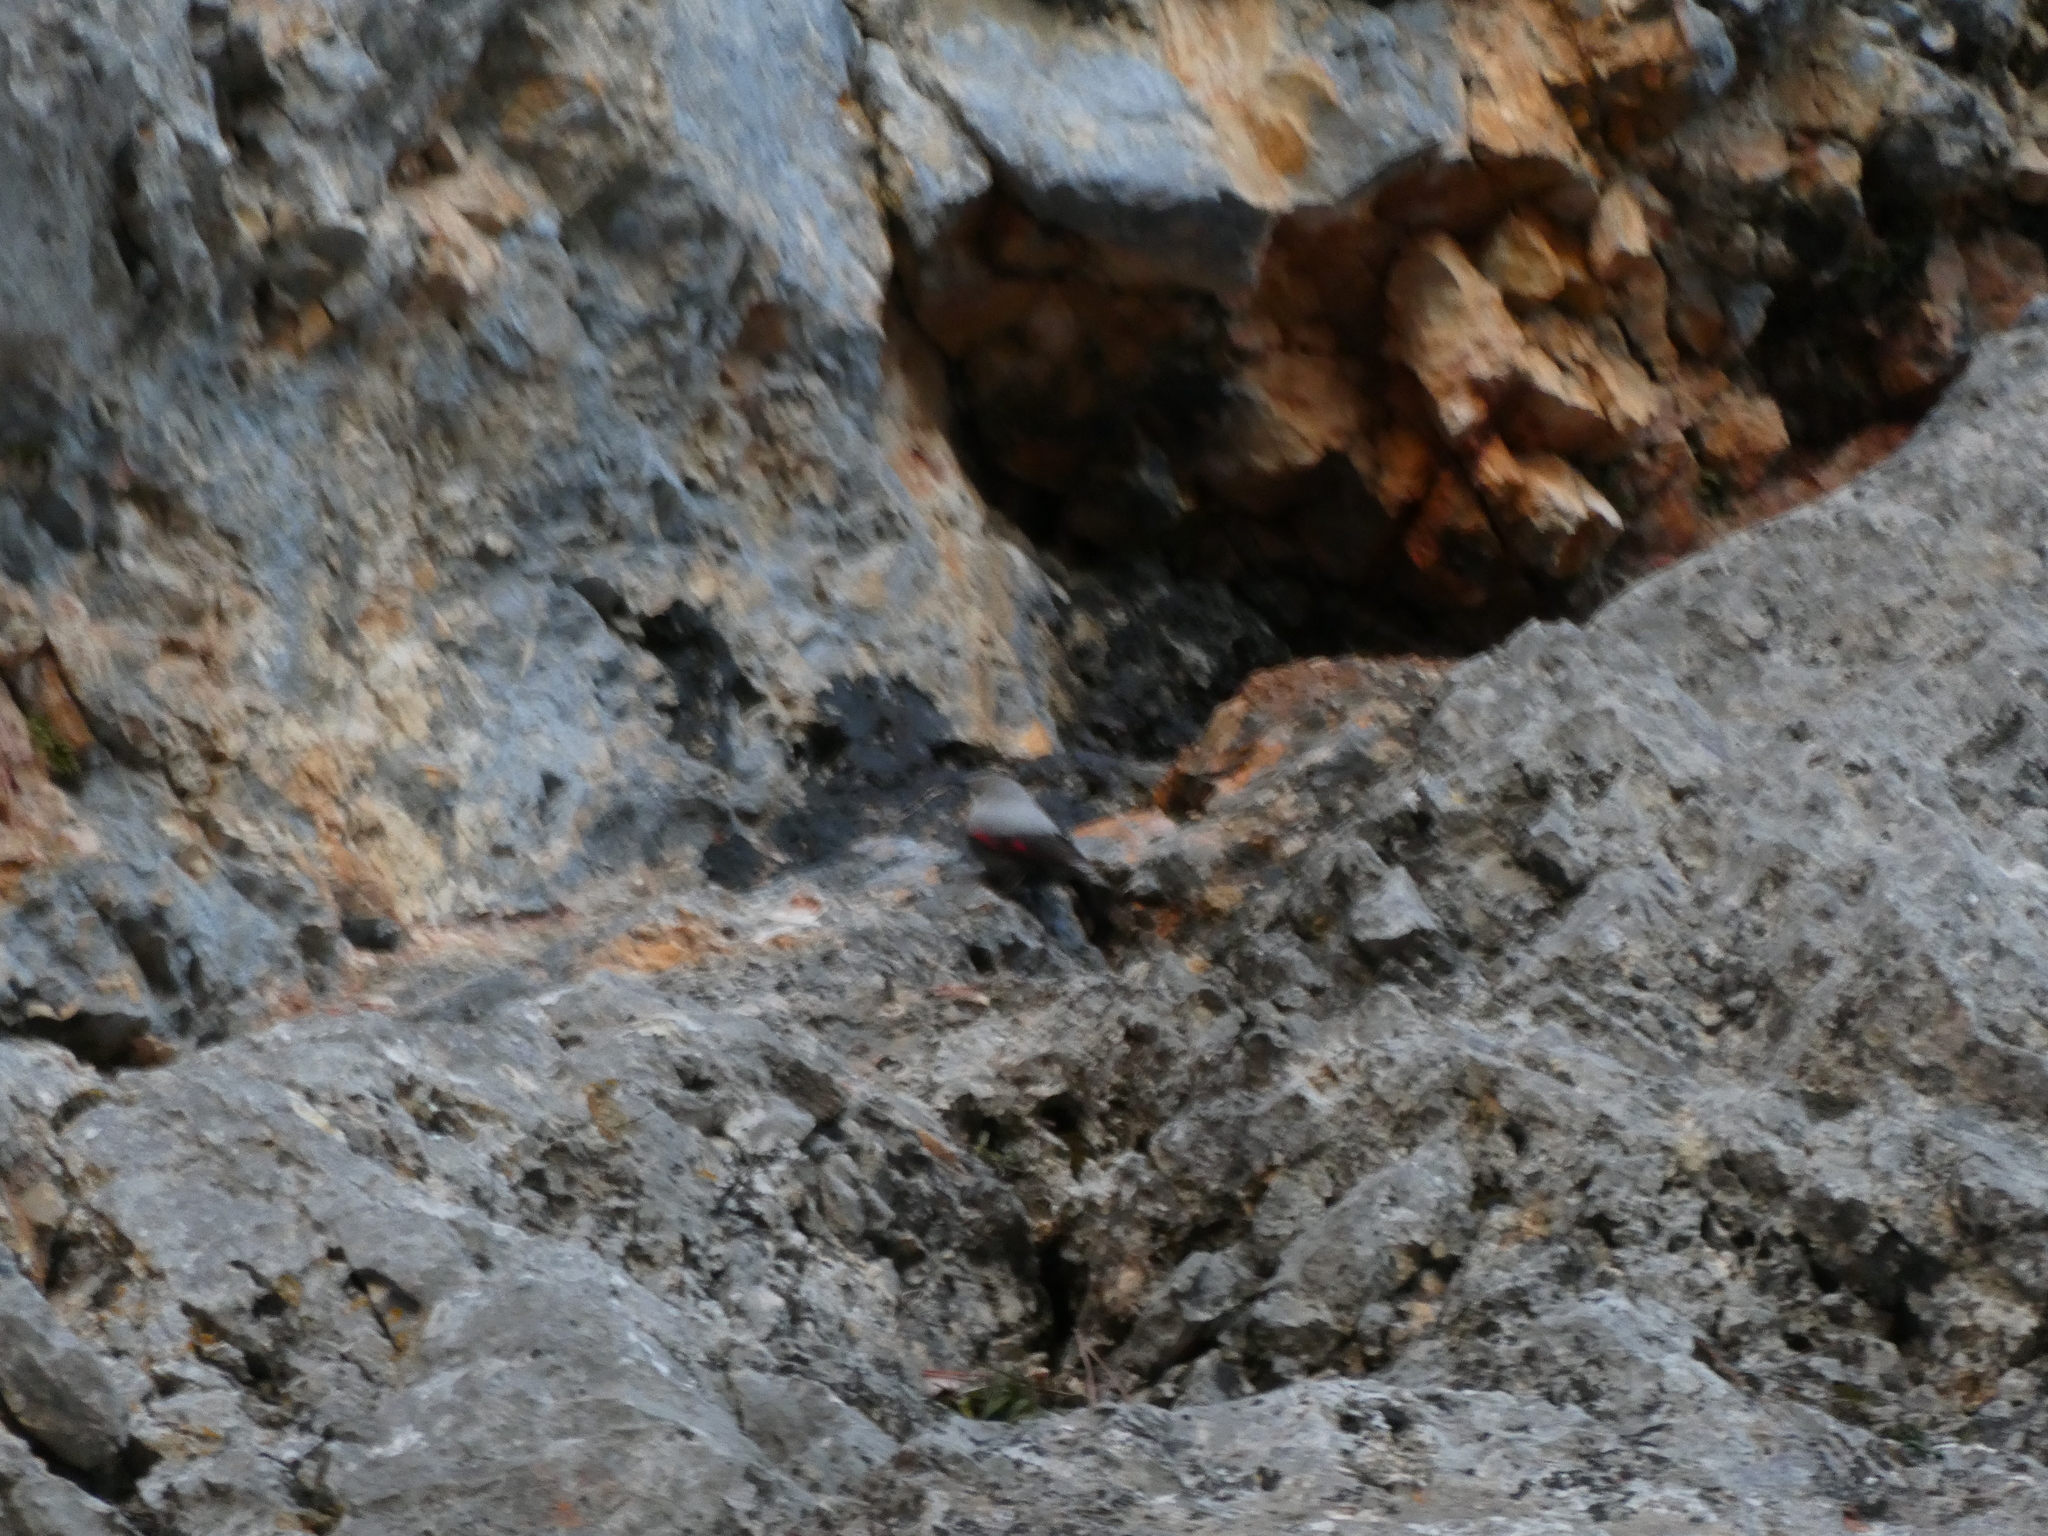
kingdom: Animalia
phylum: Chordata
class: Aves
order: Passeriformes
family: Tichodromidae
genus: Tichodroma
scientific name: Tichodroma muraria
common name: Wallcreeper
